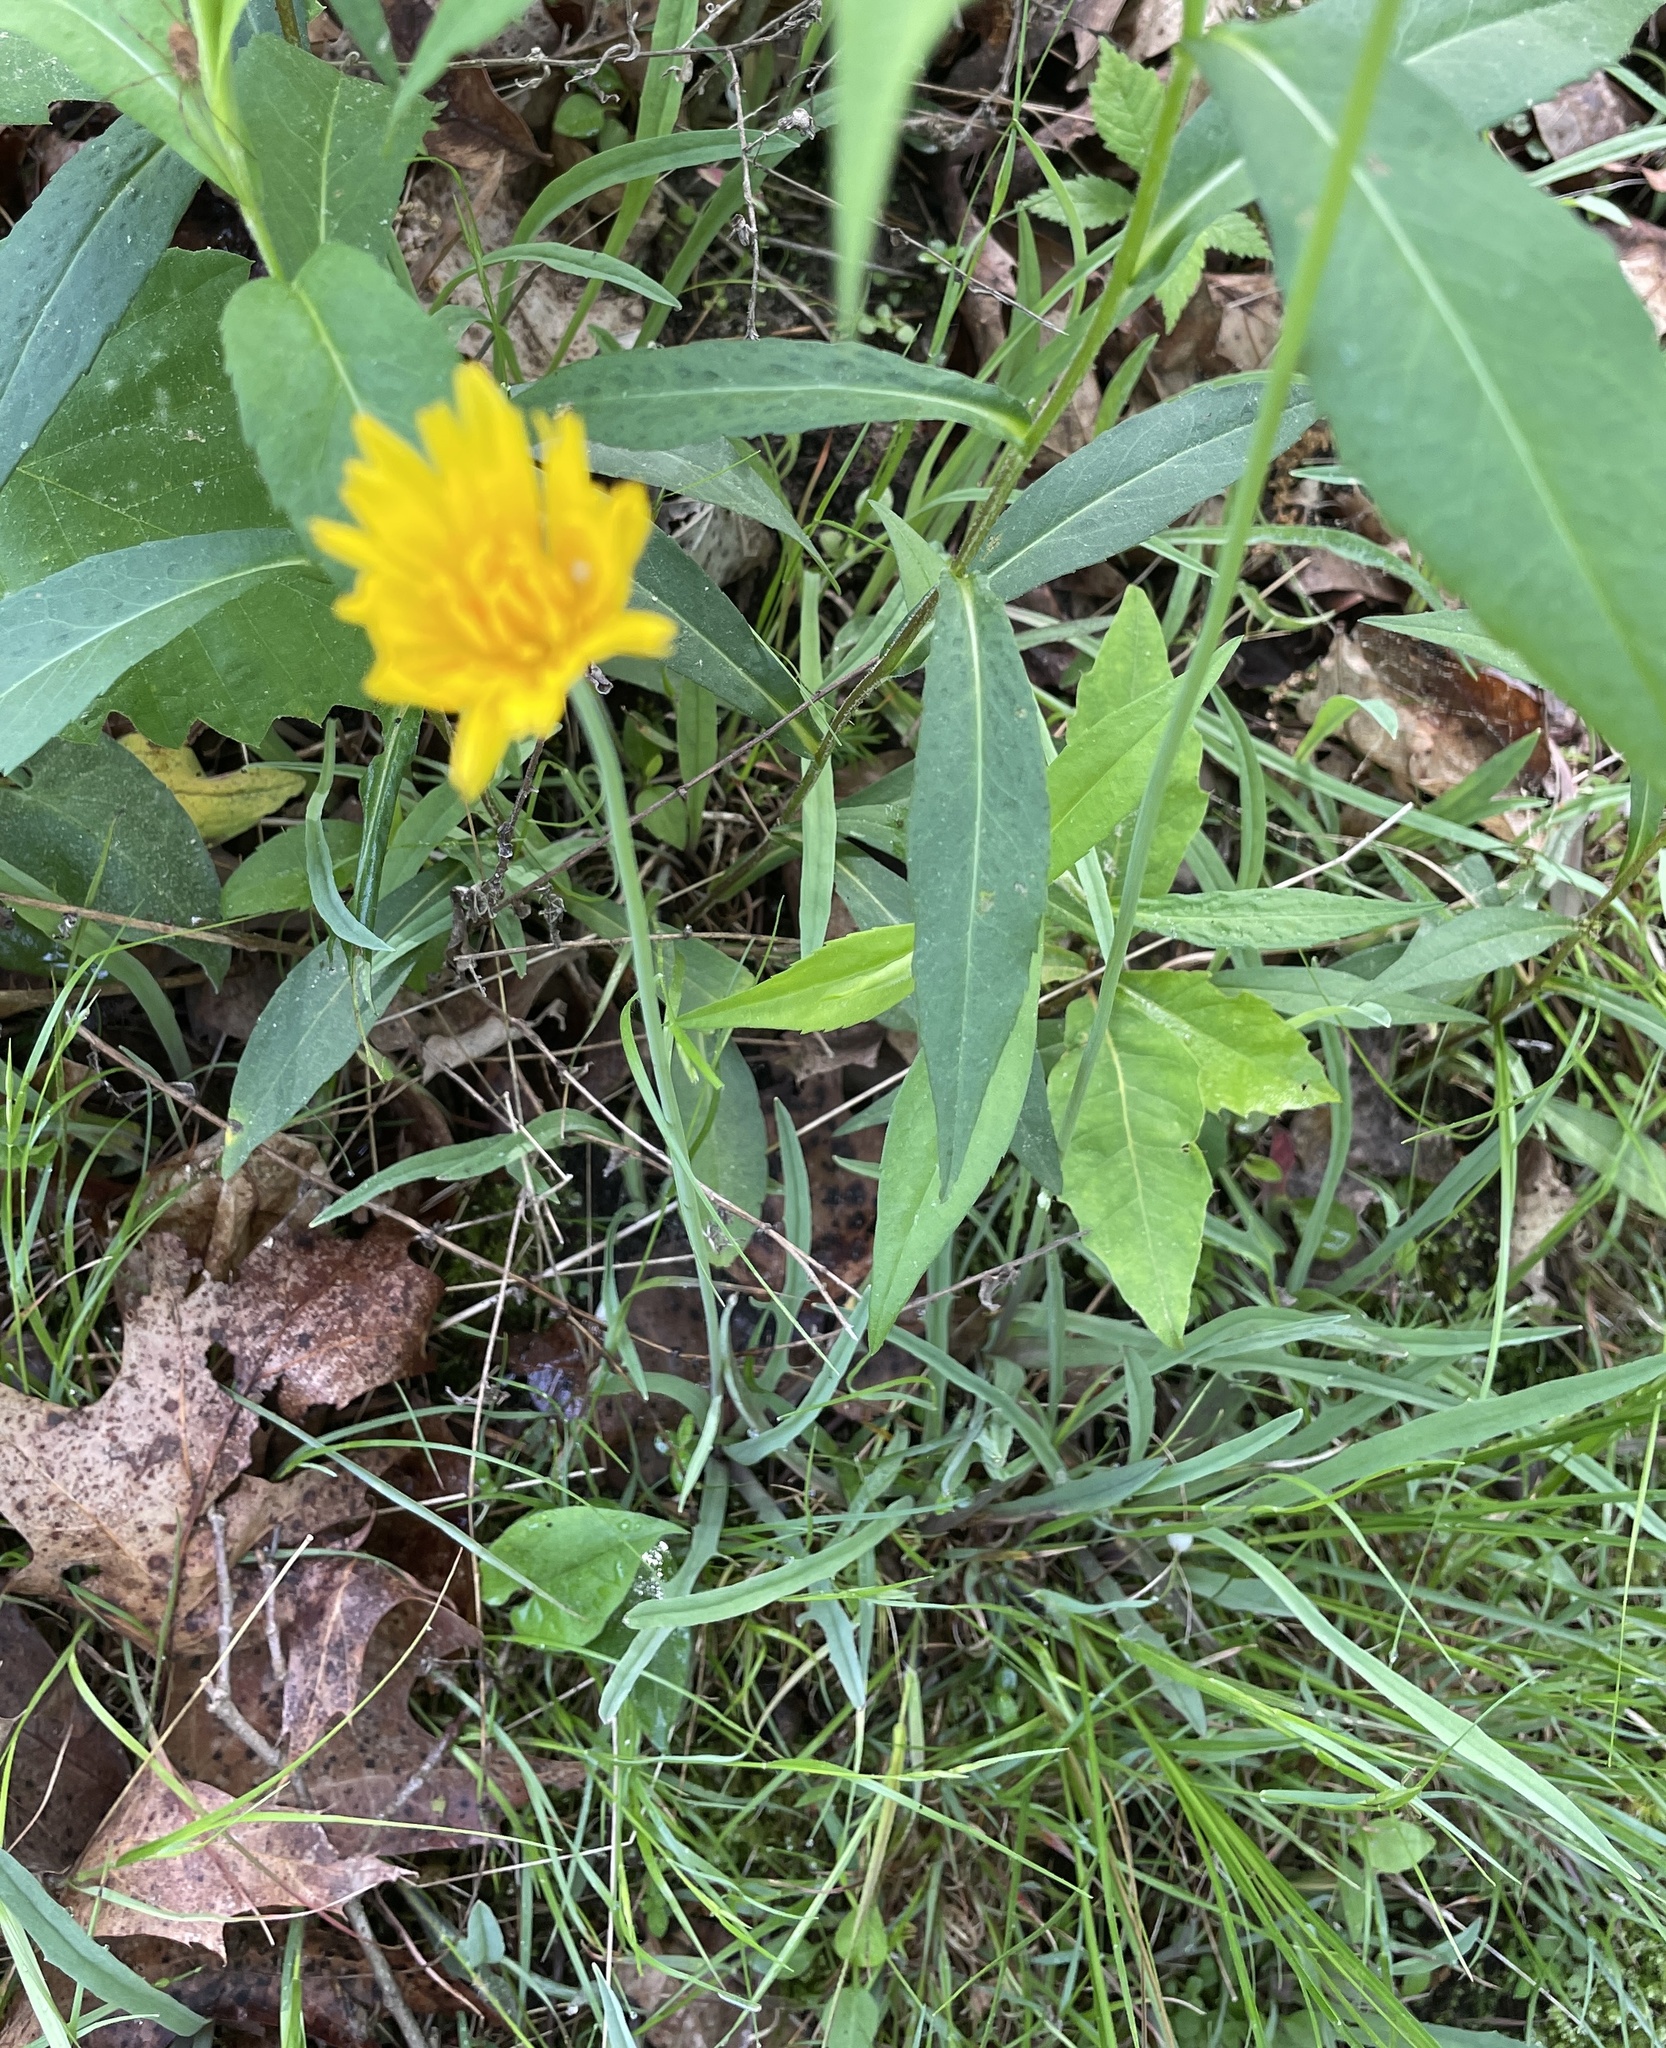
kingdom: Plantae
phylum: Tracheophyta
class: Magnoliopsida
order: Asterales
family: Asteraceae
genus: Krigia
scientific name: Krigia dandelion
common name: Colonial dwarf-dandelion
